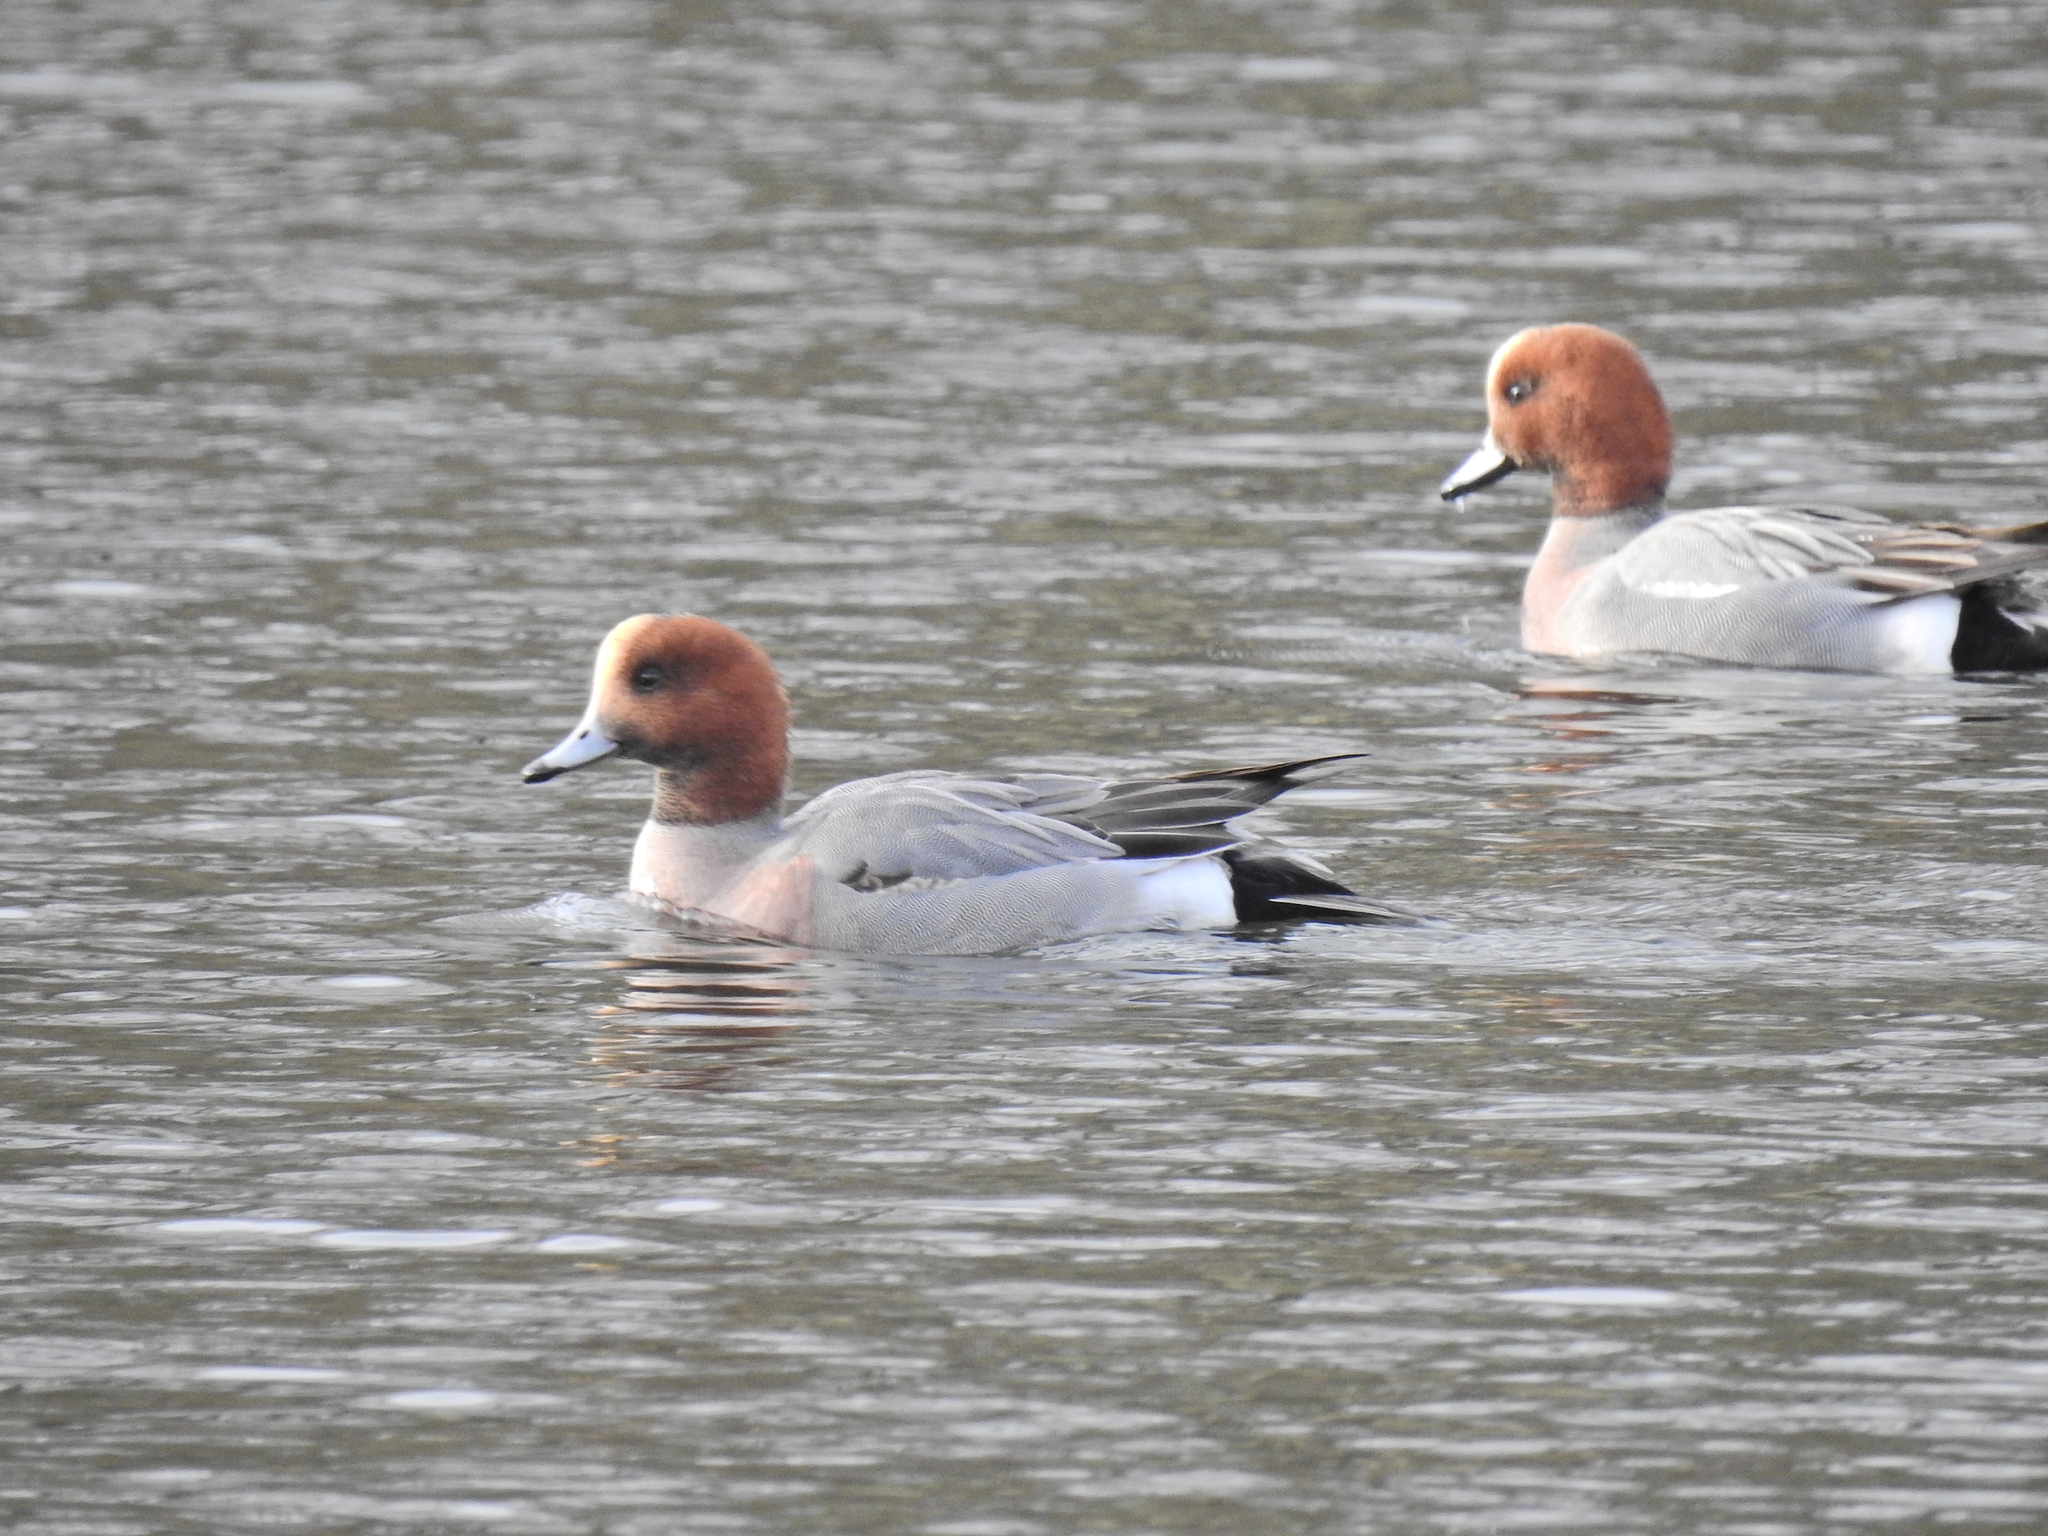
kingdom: Animalia
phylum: Chordata
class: Aves
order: Anseriformes
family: Anatidae
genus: Mareca
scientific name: Mareca penelope
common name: Eurasian wigeon
